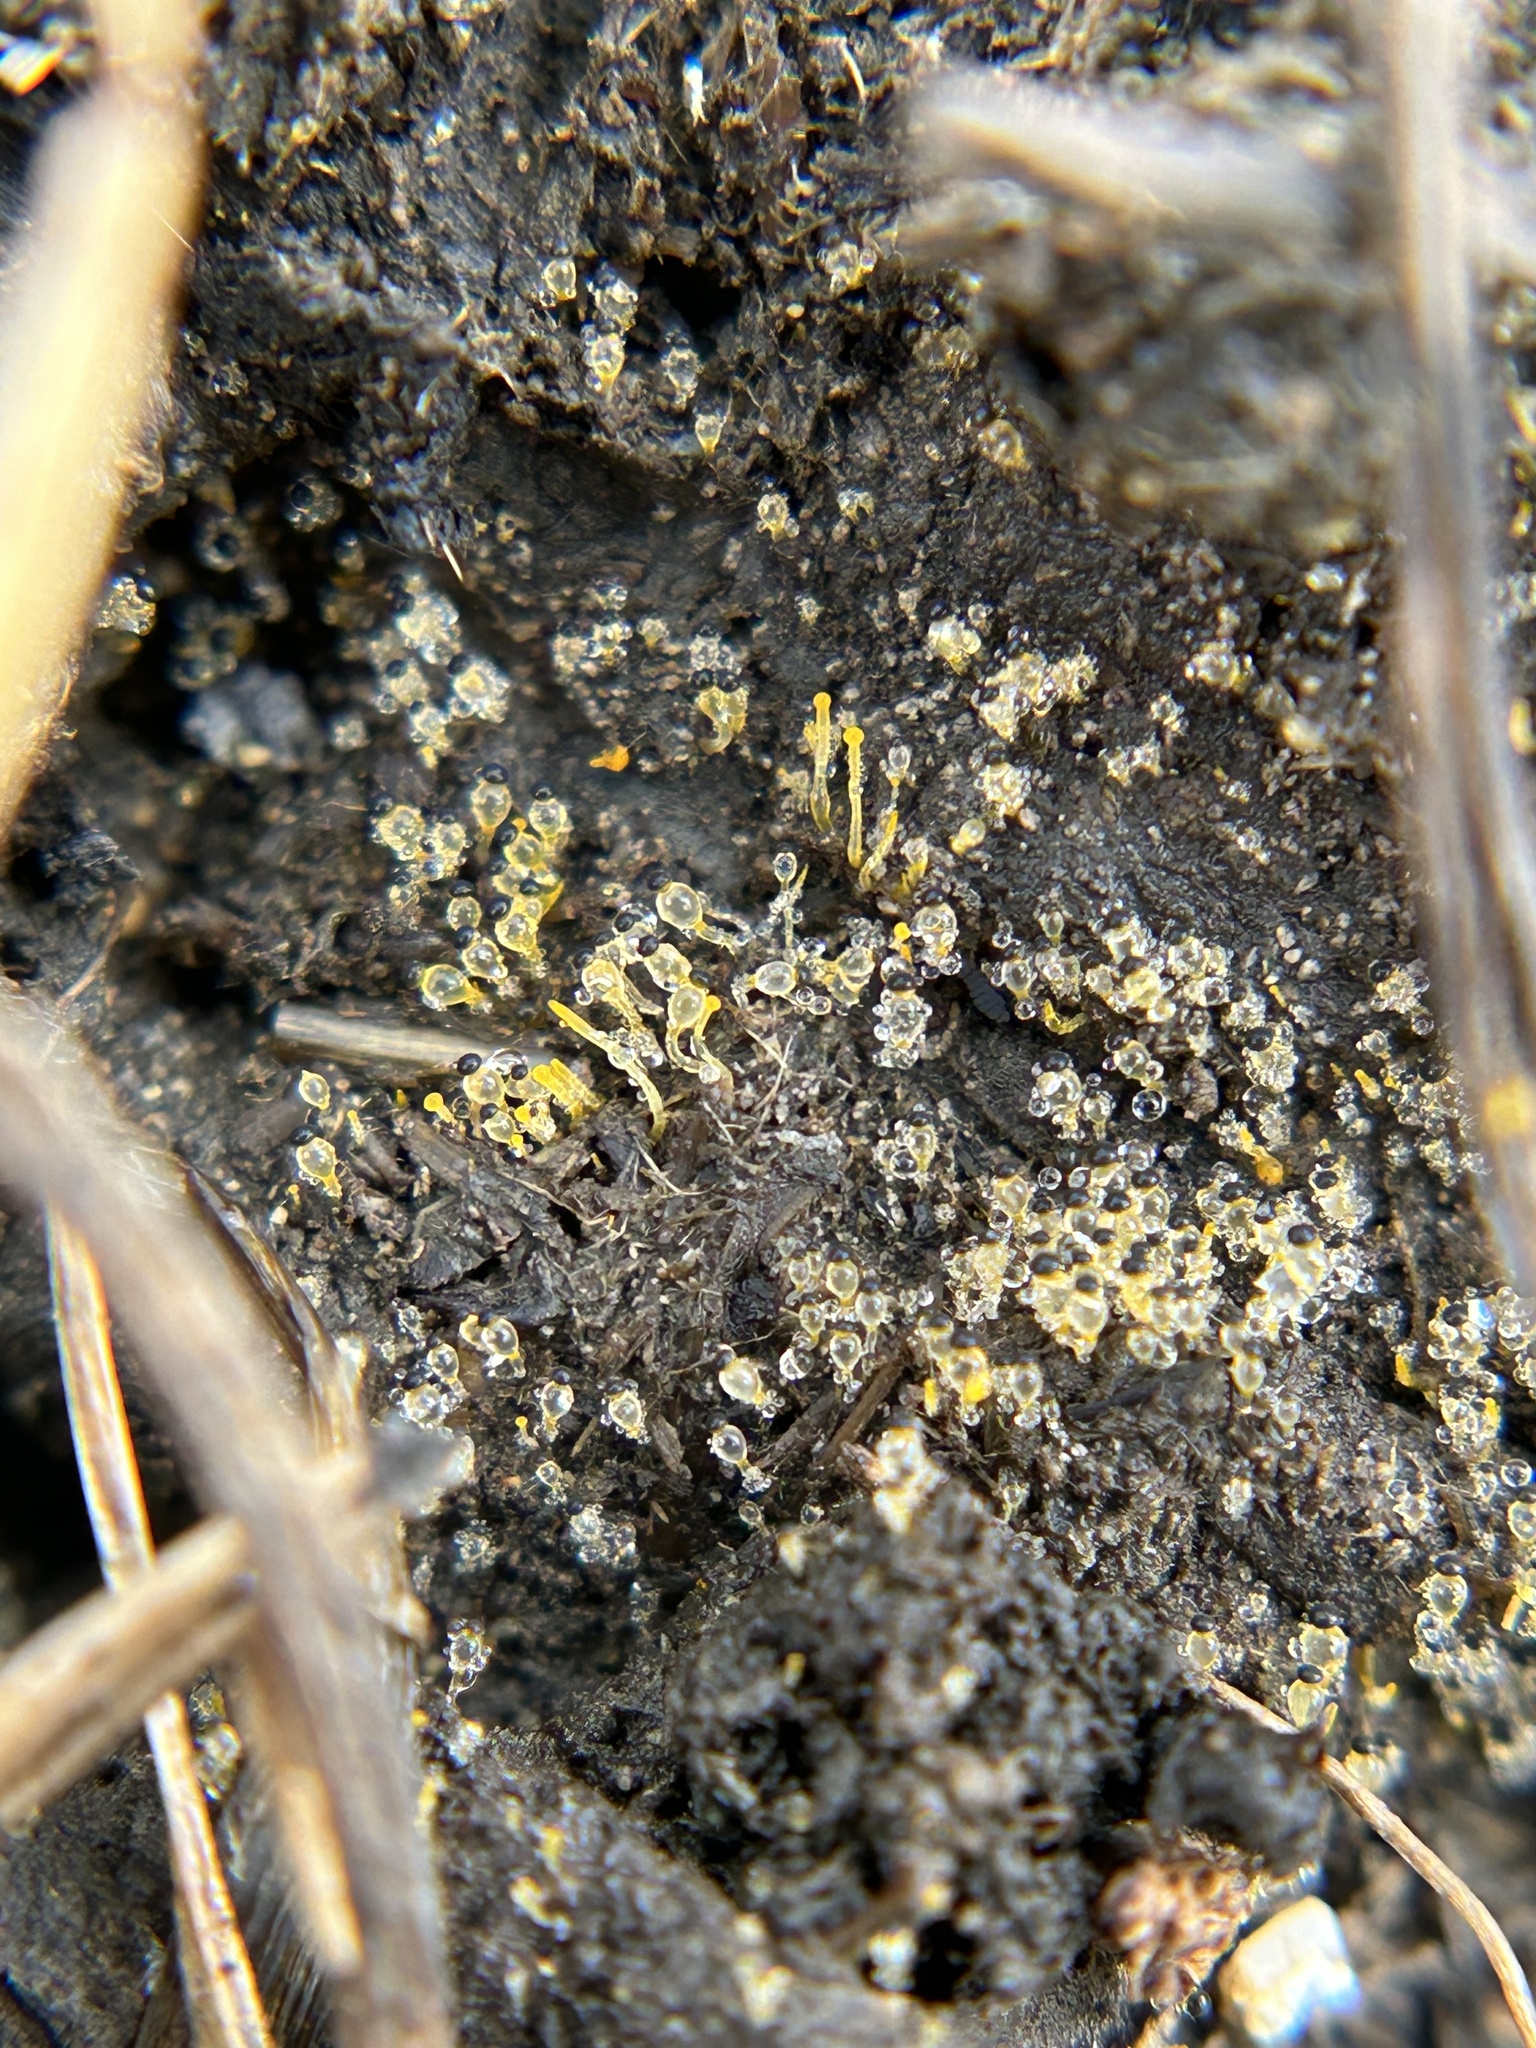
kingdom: Fungi
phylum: Mucoromycota
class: Mucoromycetes
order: Mucorales
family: Pilobolaceae
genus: Pilobolus
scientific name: Pilobolus
